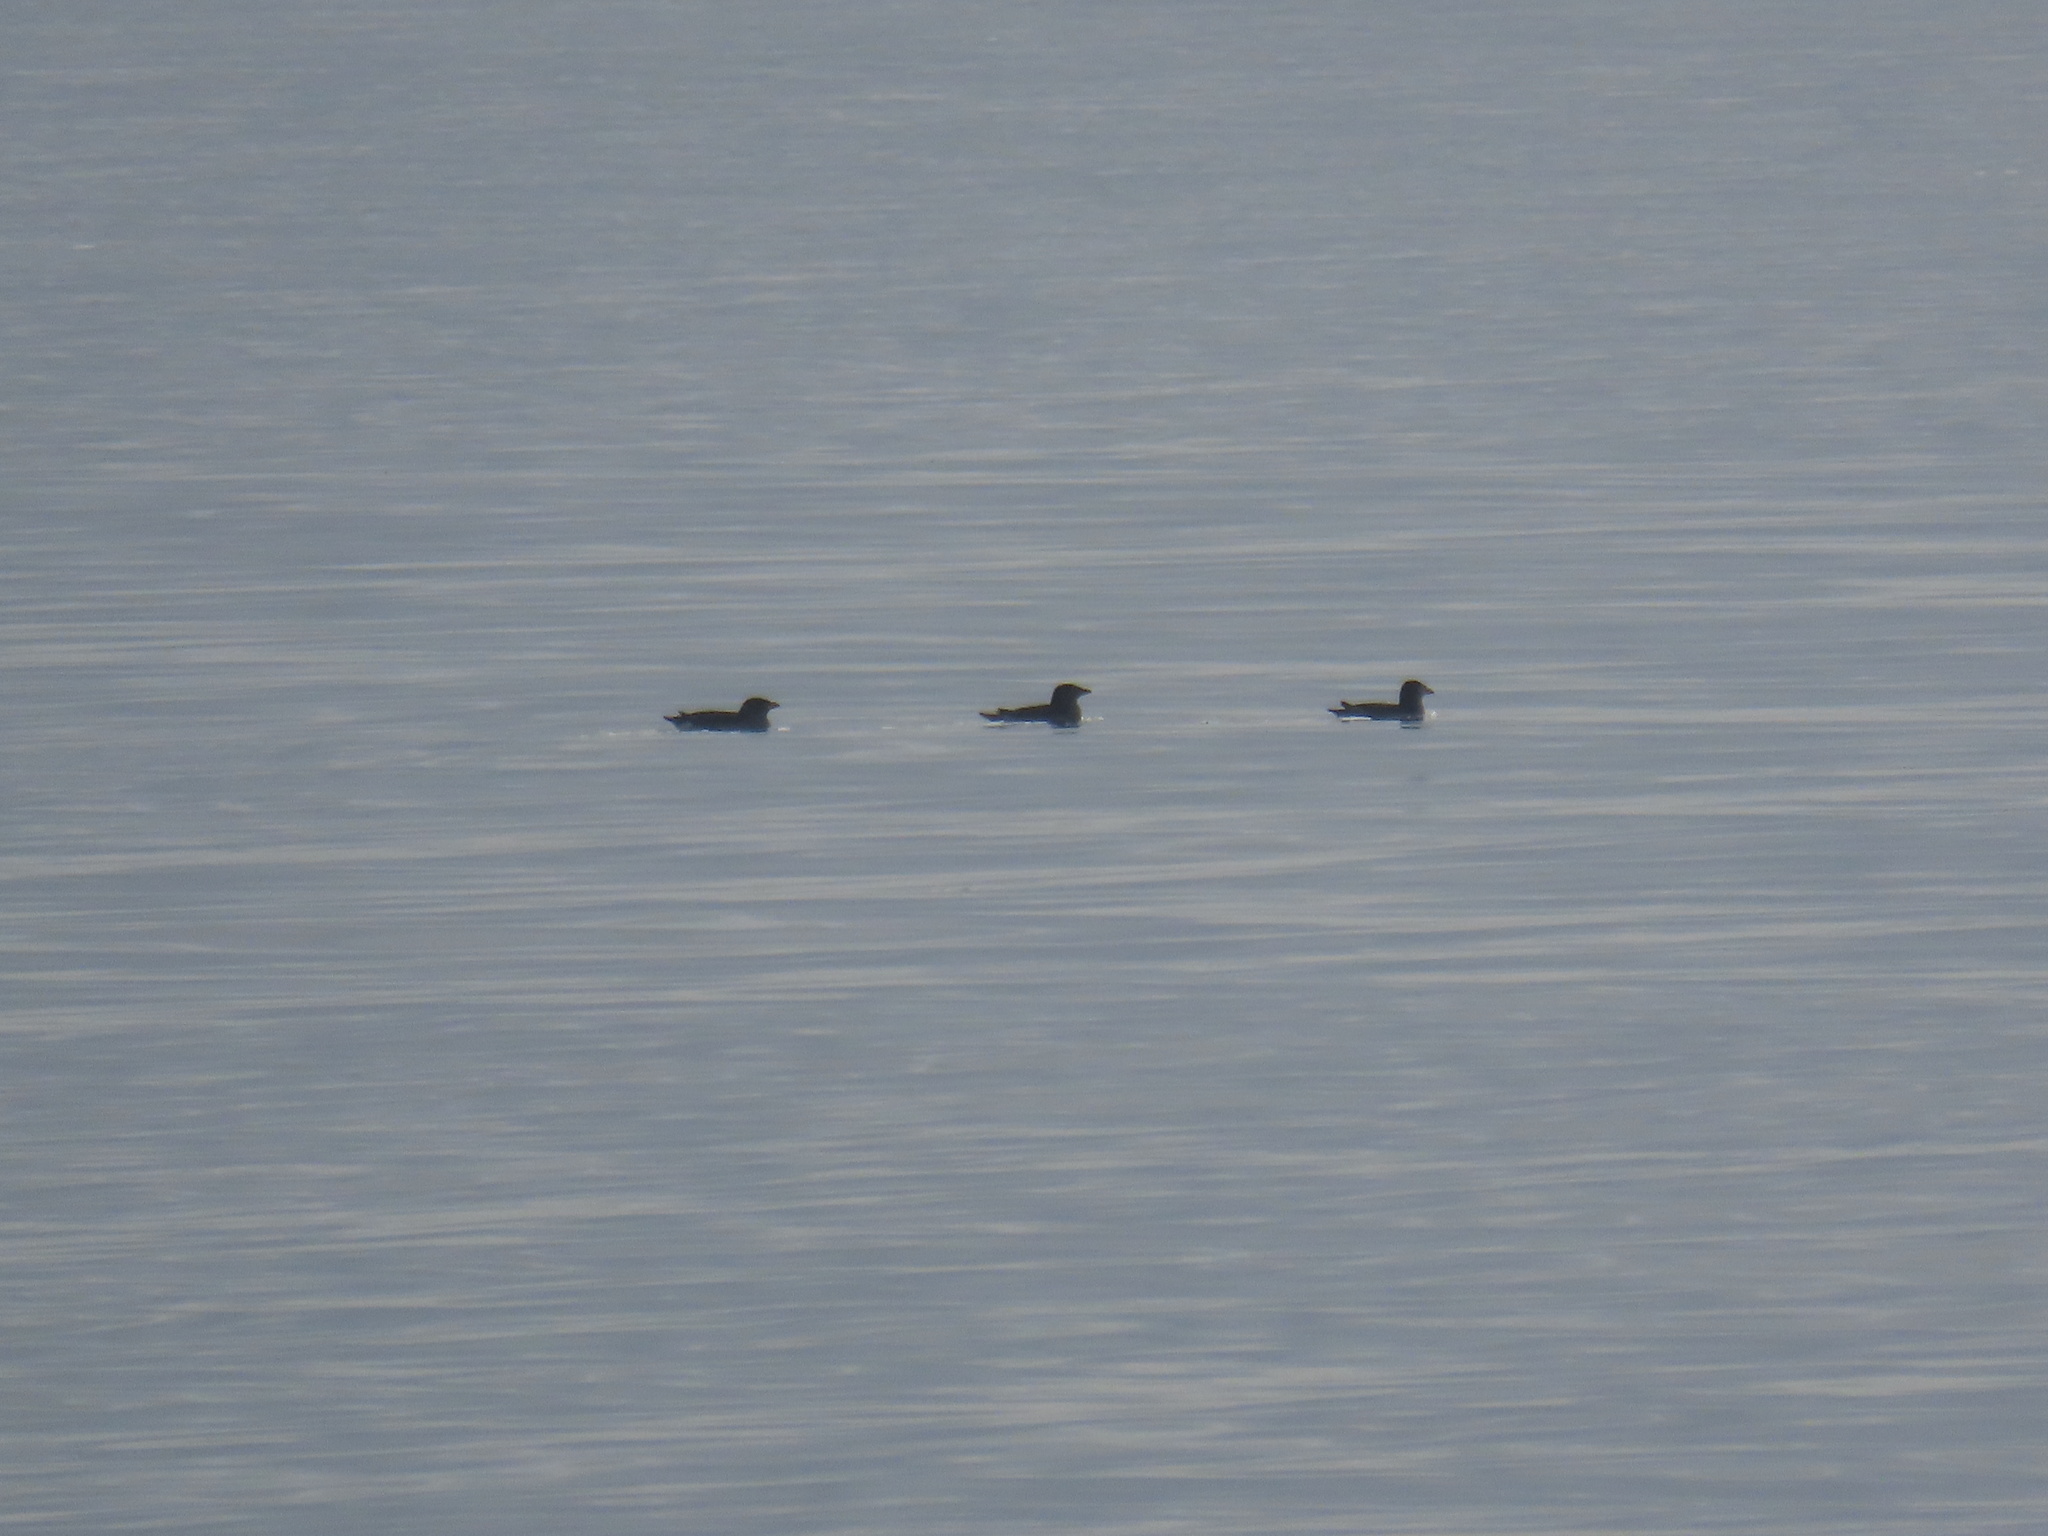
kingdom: Animalia
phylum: Chordata
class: Aves
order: Charadriiformes
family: Alcidae
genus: Cerorhinca
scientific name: Cerorhinca monocerata
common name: Rhinoceros auklet
